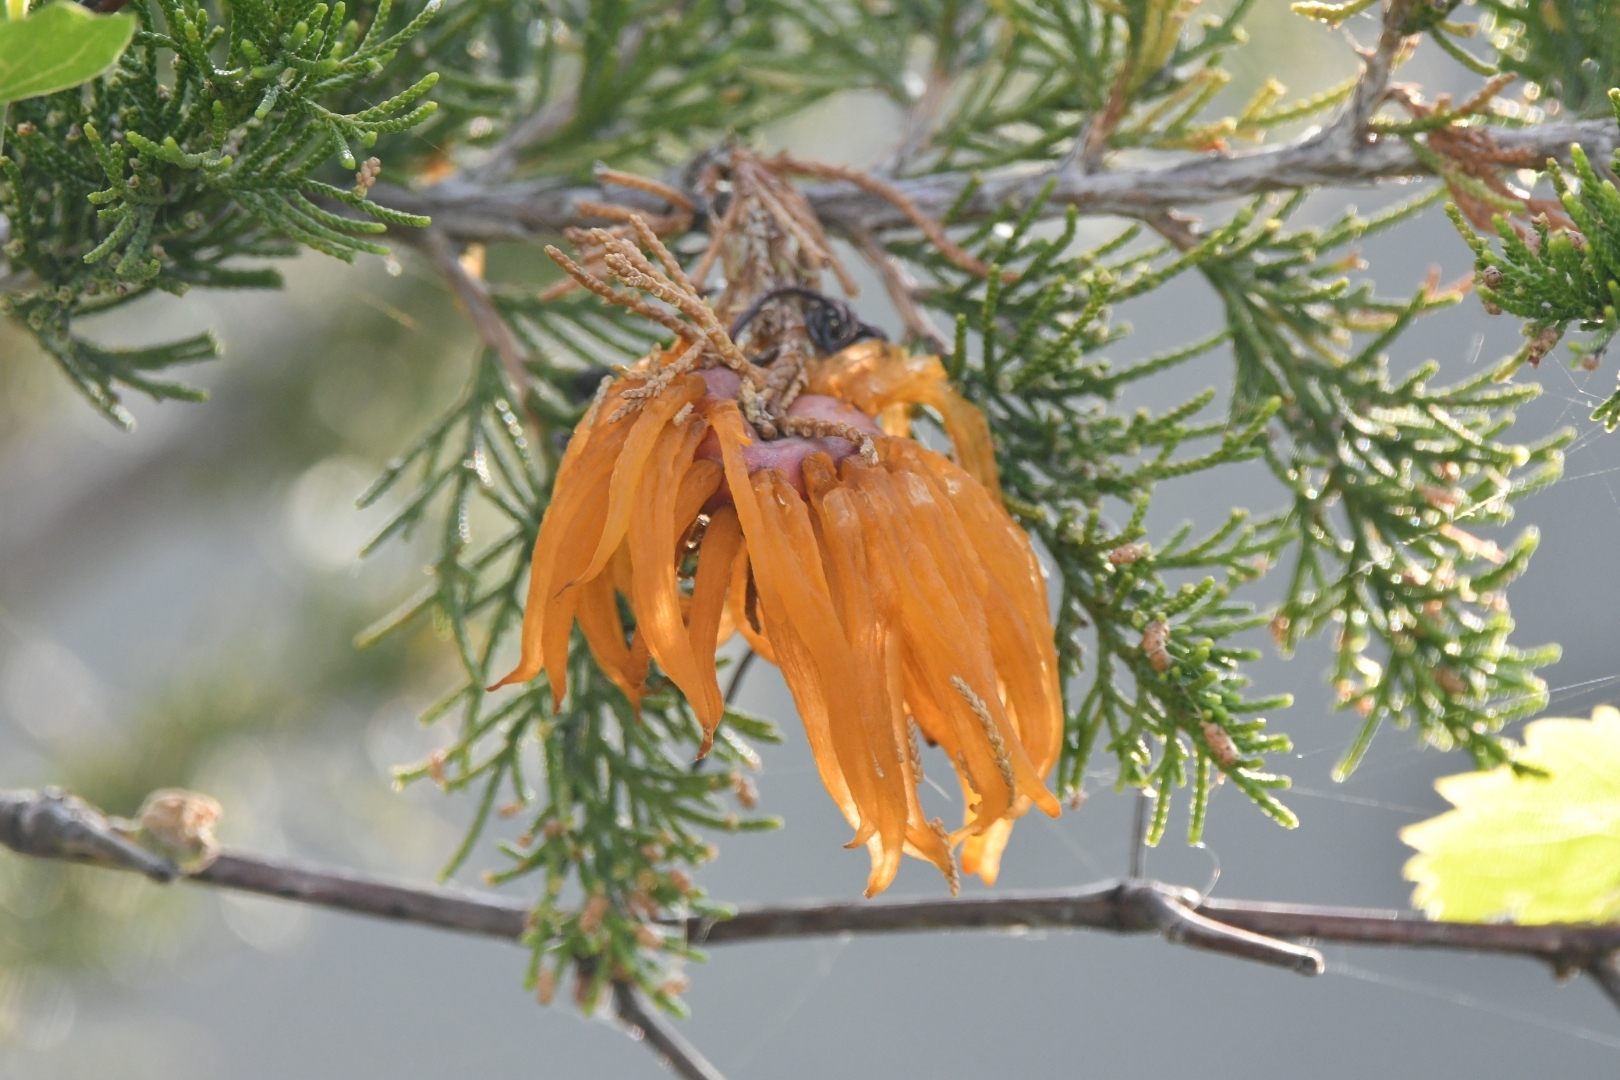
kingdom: Fungi
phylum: Basidiomycota
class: Pucciniomycetes
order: Pucciniales
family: Gymnosporangiaceae
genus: Gymnosporangium
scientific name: Gymnosporangium juniperi-virginianae
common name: Juniper-apple rust
